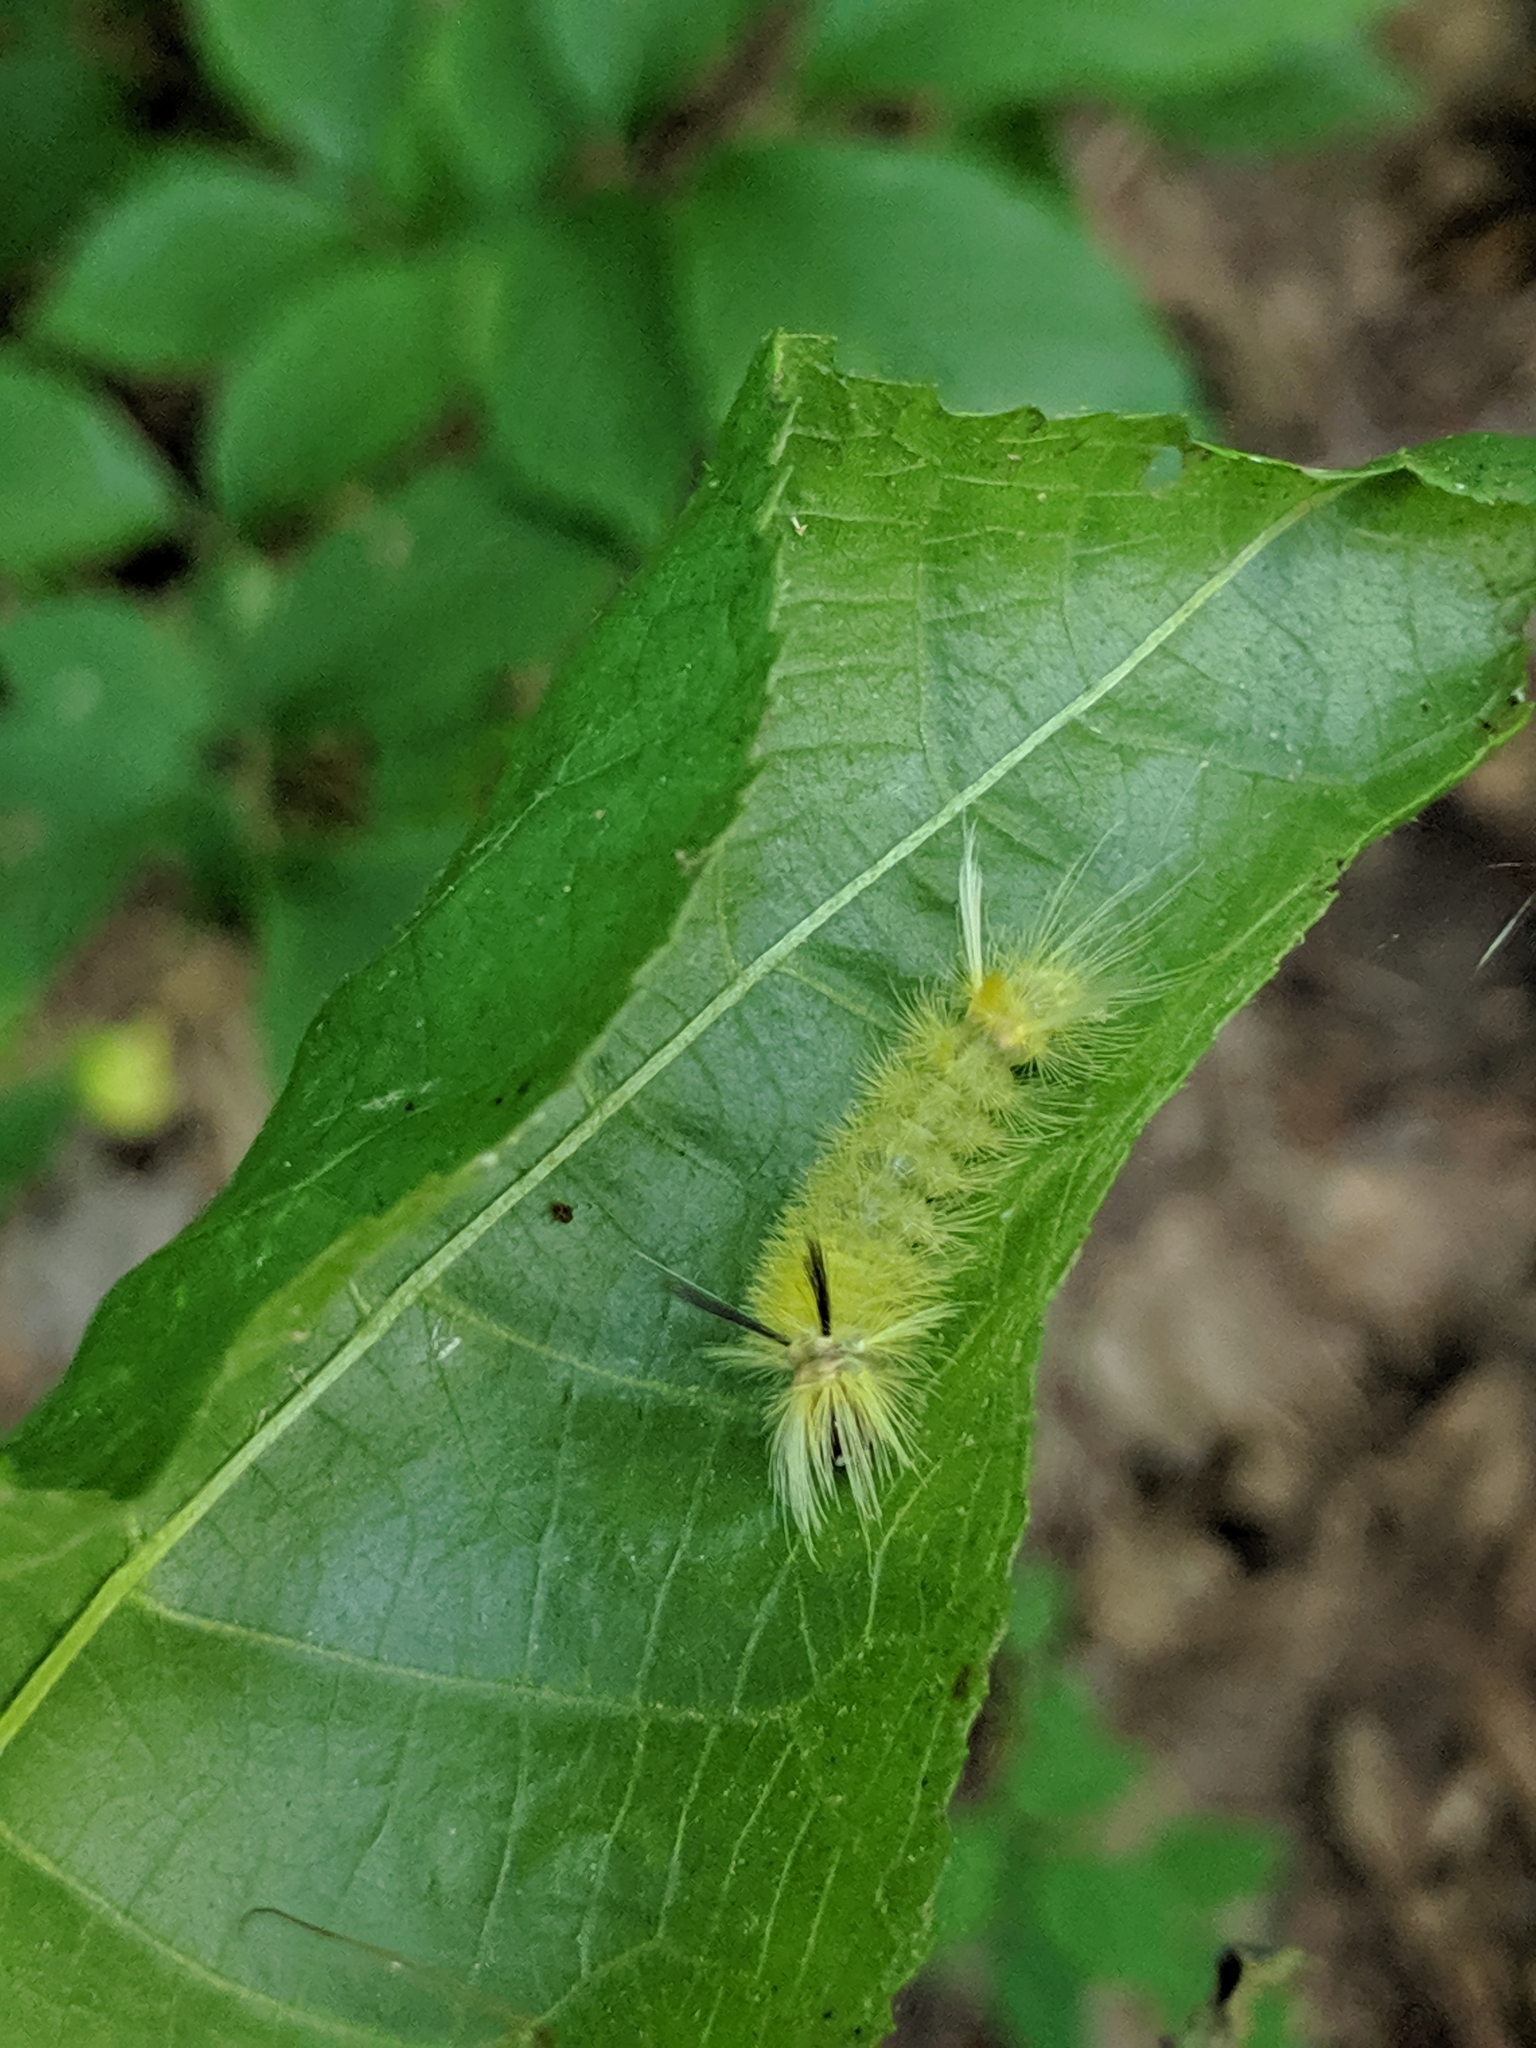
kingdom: Animalia
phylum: Arthropoda
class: Insecta
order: Lepidoptera
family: Erebidae
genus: Halysidota
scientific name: Halysidota tessellaris
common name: Banded tussock moth
